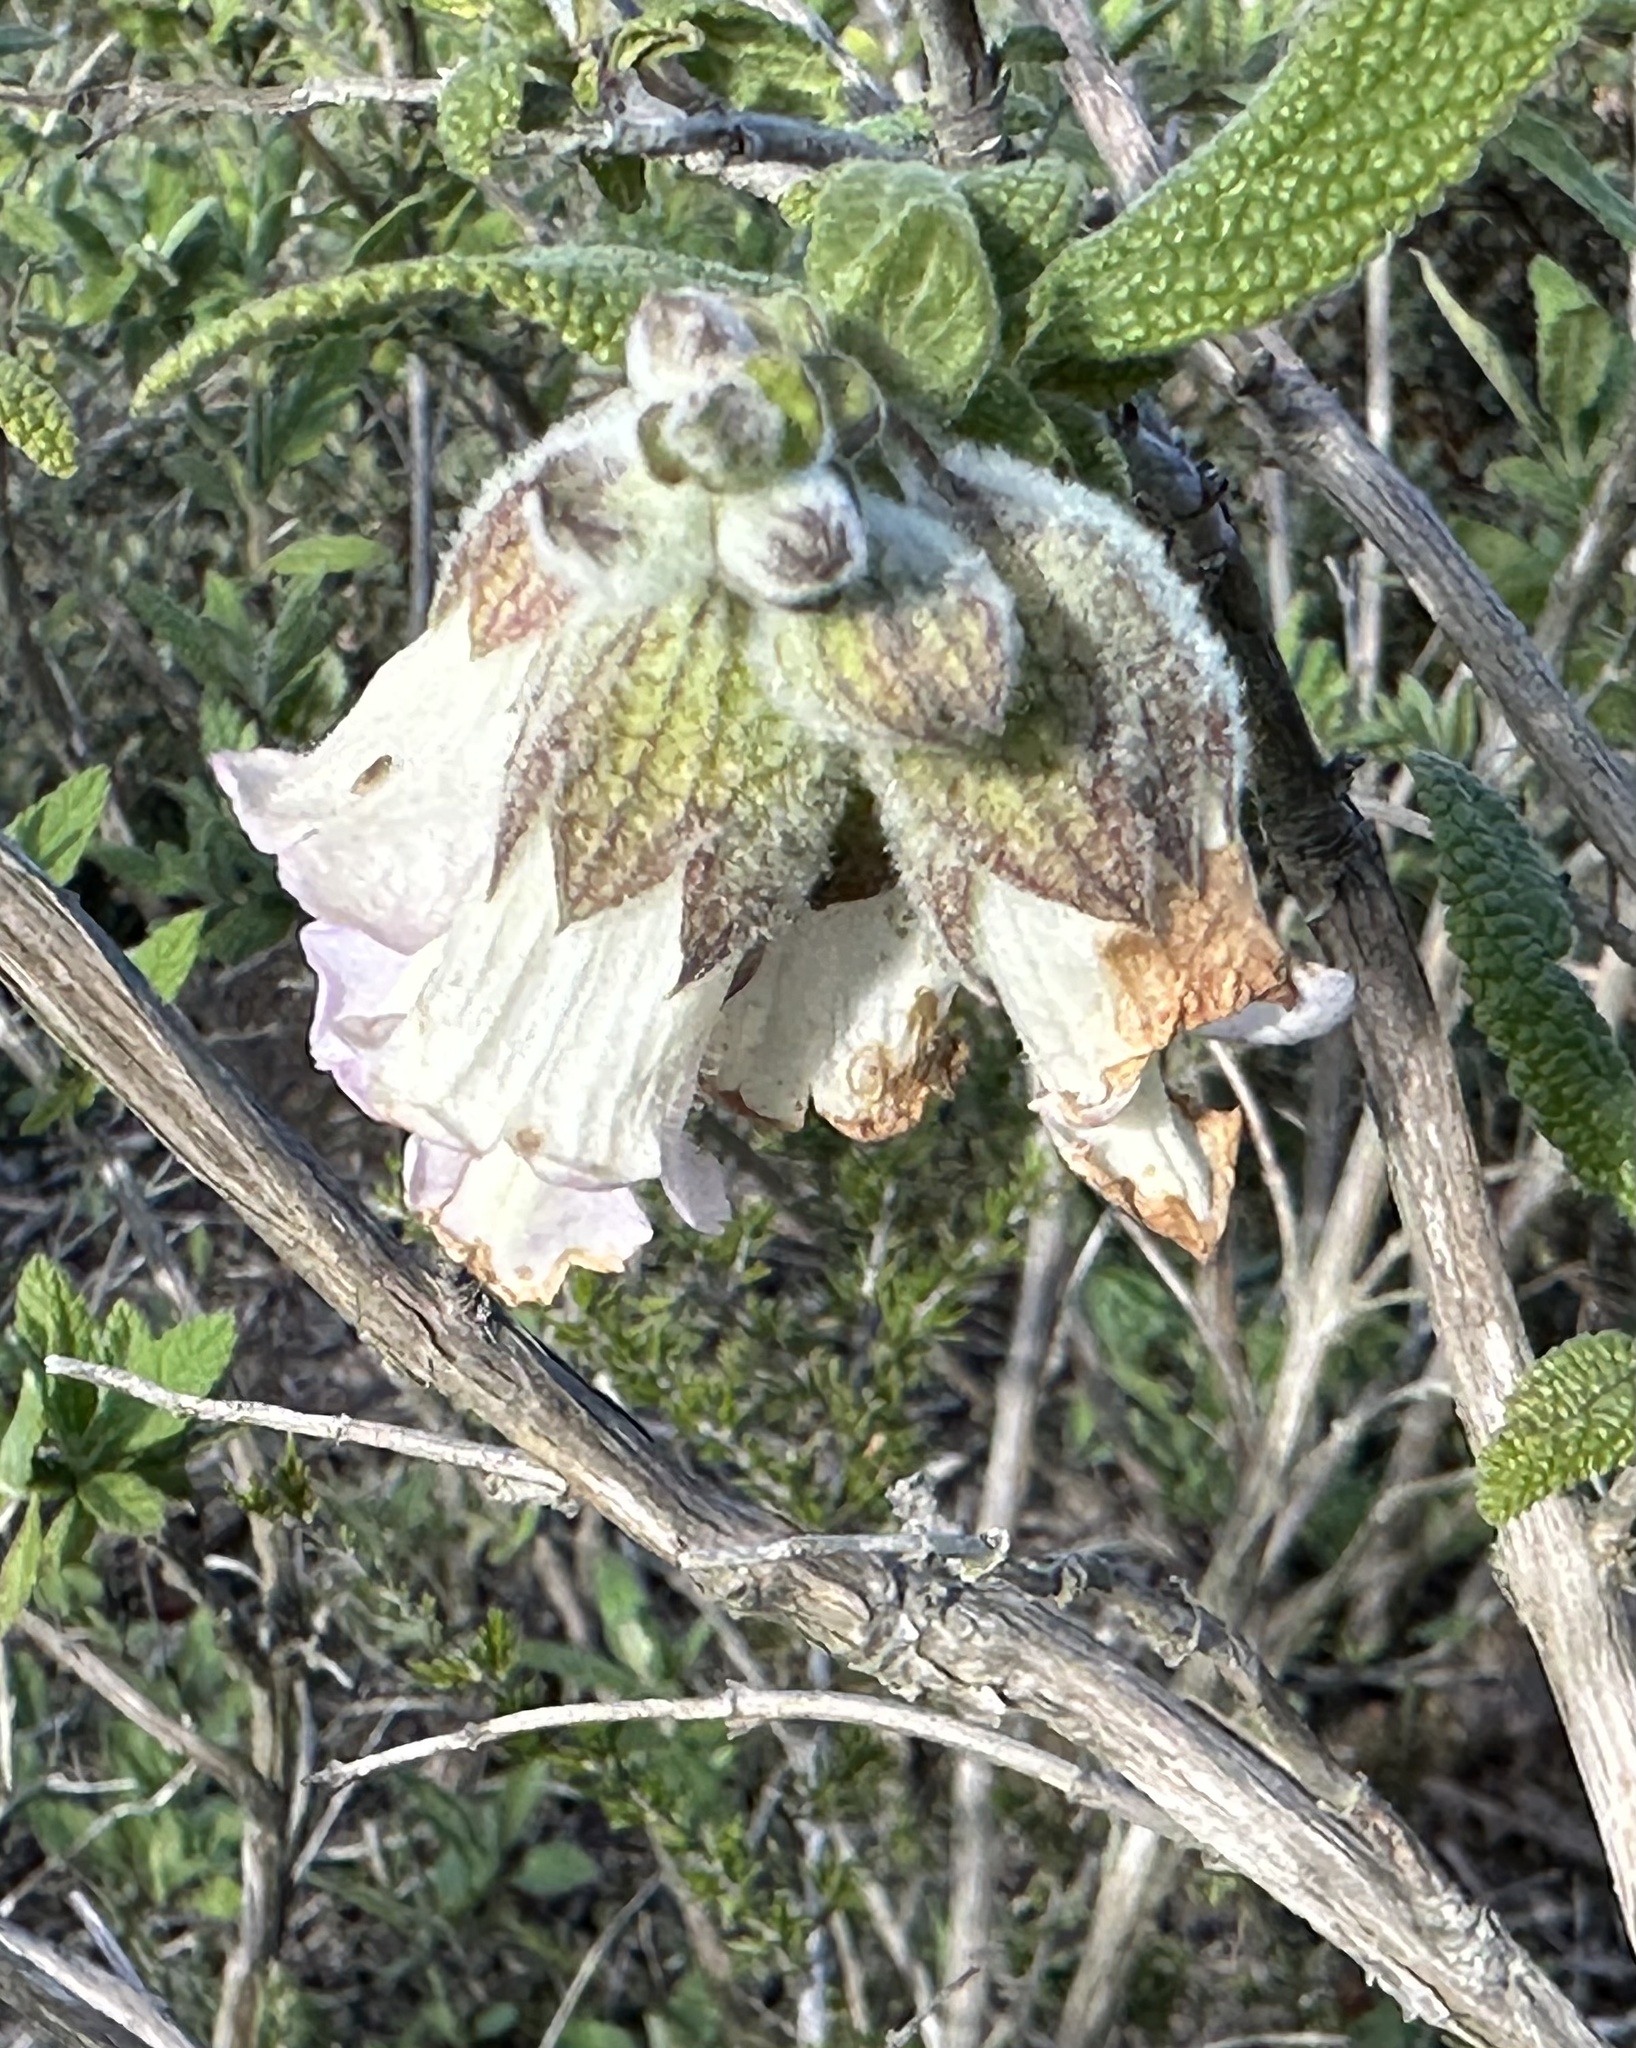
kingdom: Plantae
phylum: Tracheophyta
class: Magnoliopsida
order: Lamiales
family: Lamiaceae
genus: Lepechinia
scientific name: Lepechinia calycina
